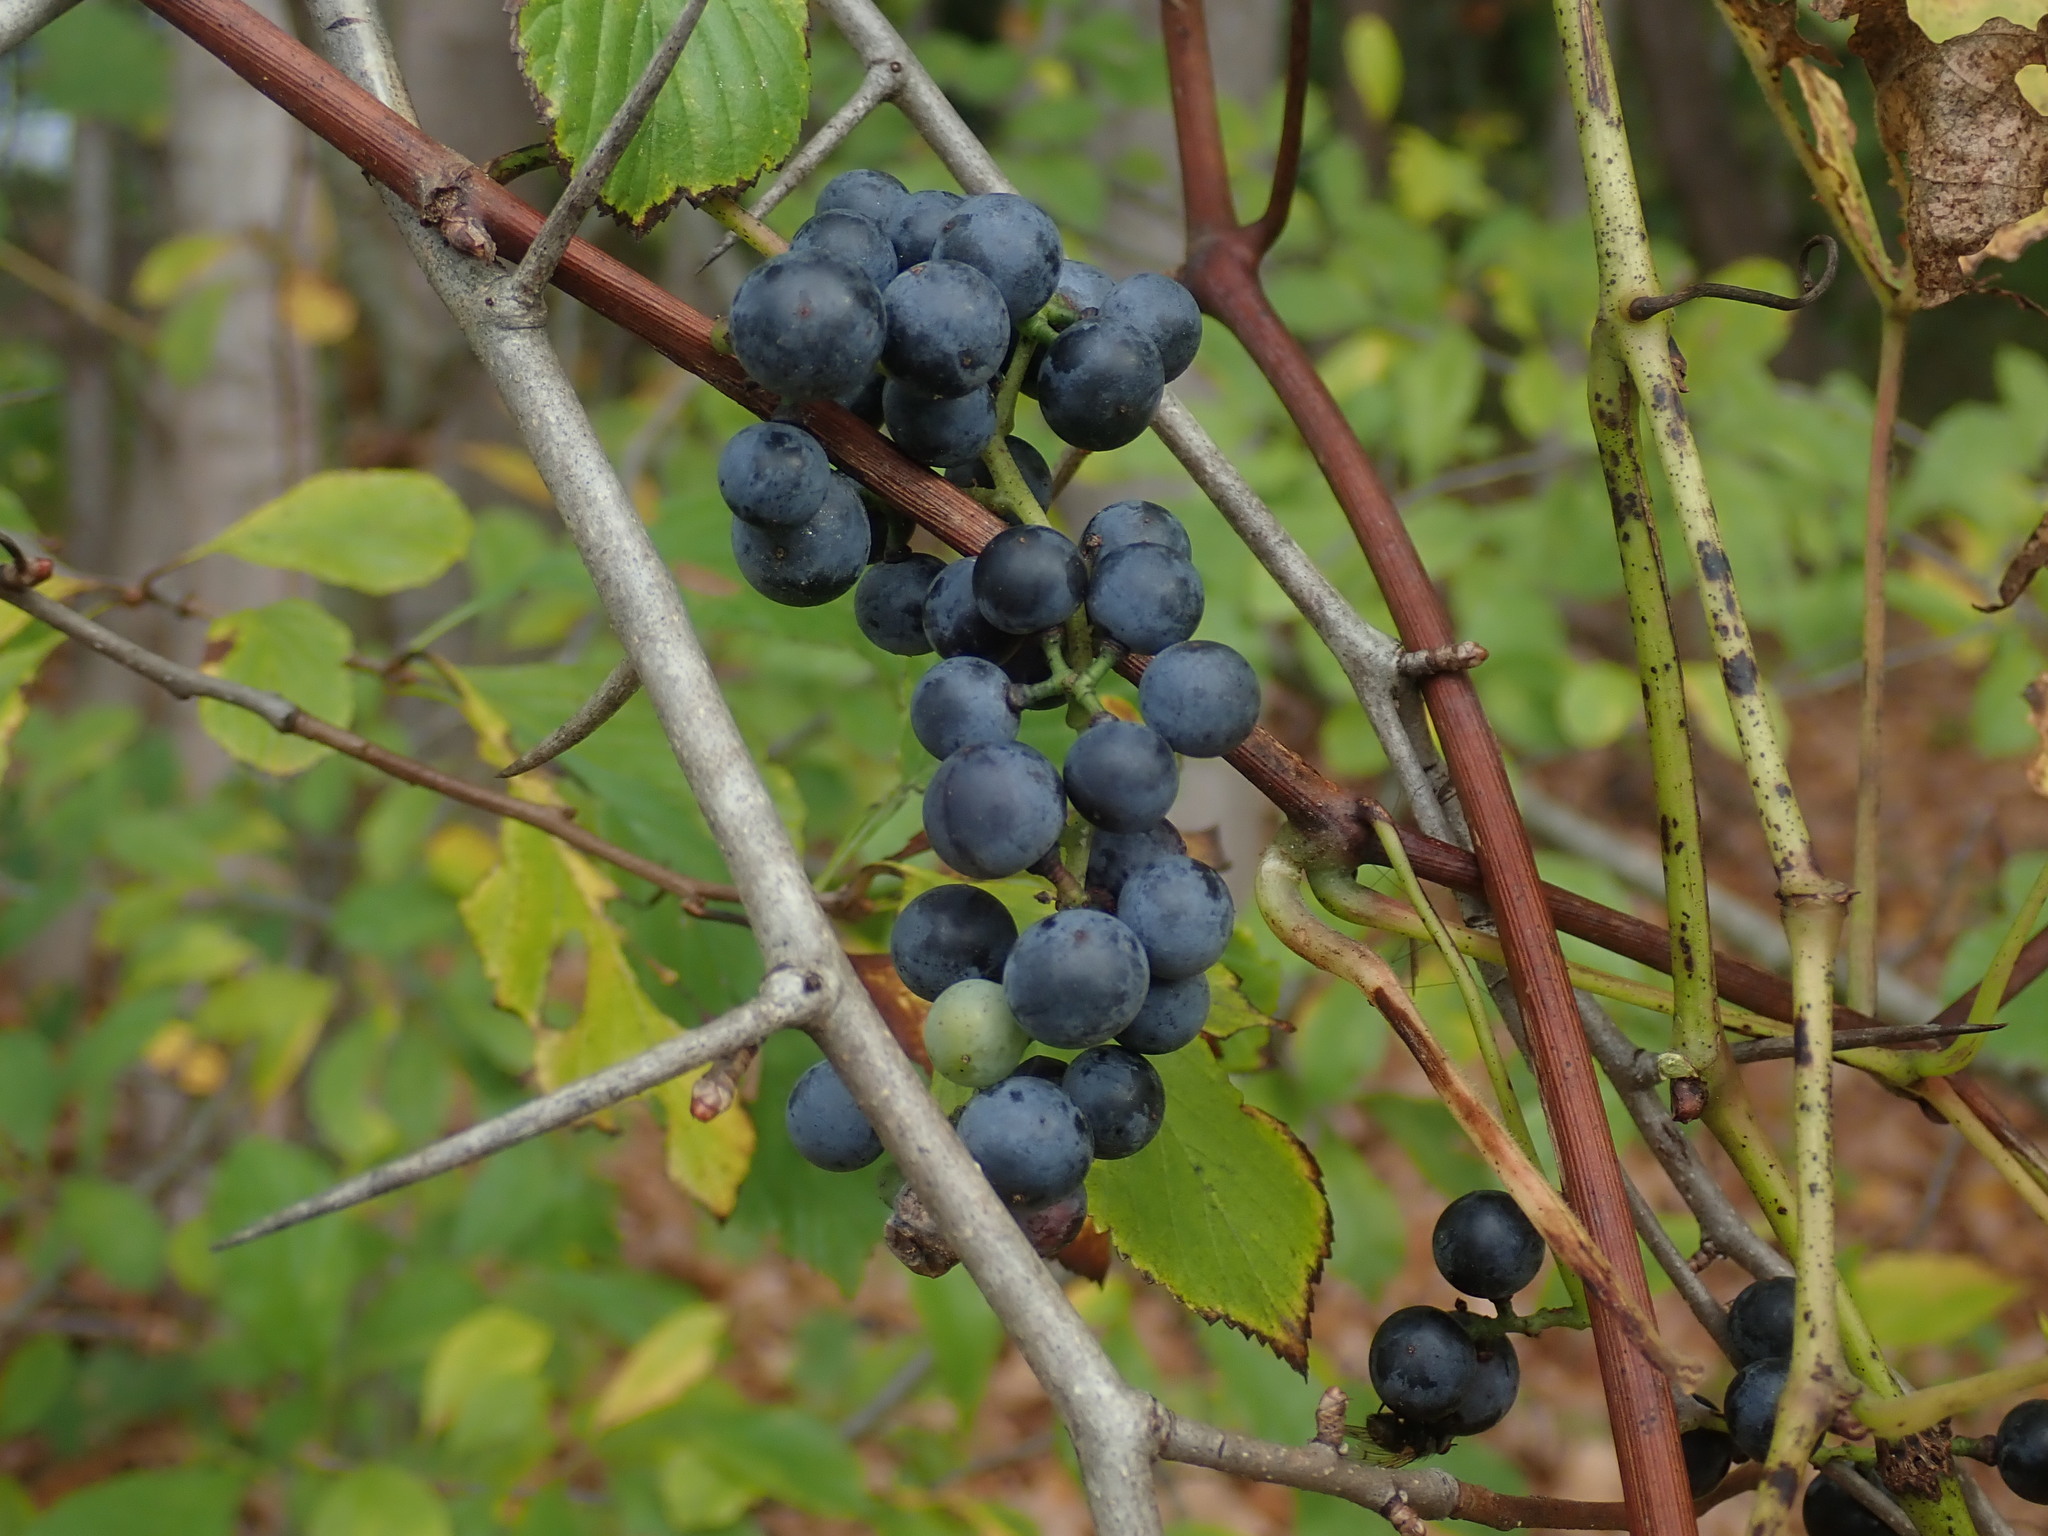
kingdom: Plantae
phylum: Tracheophyta
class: Magnoliopsida
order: Vitales
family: Vitaceae
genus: Vitis
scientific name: Vitis
